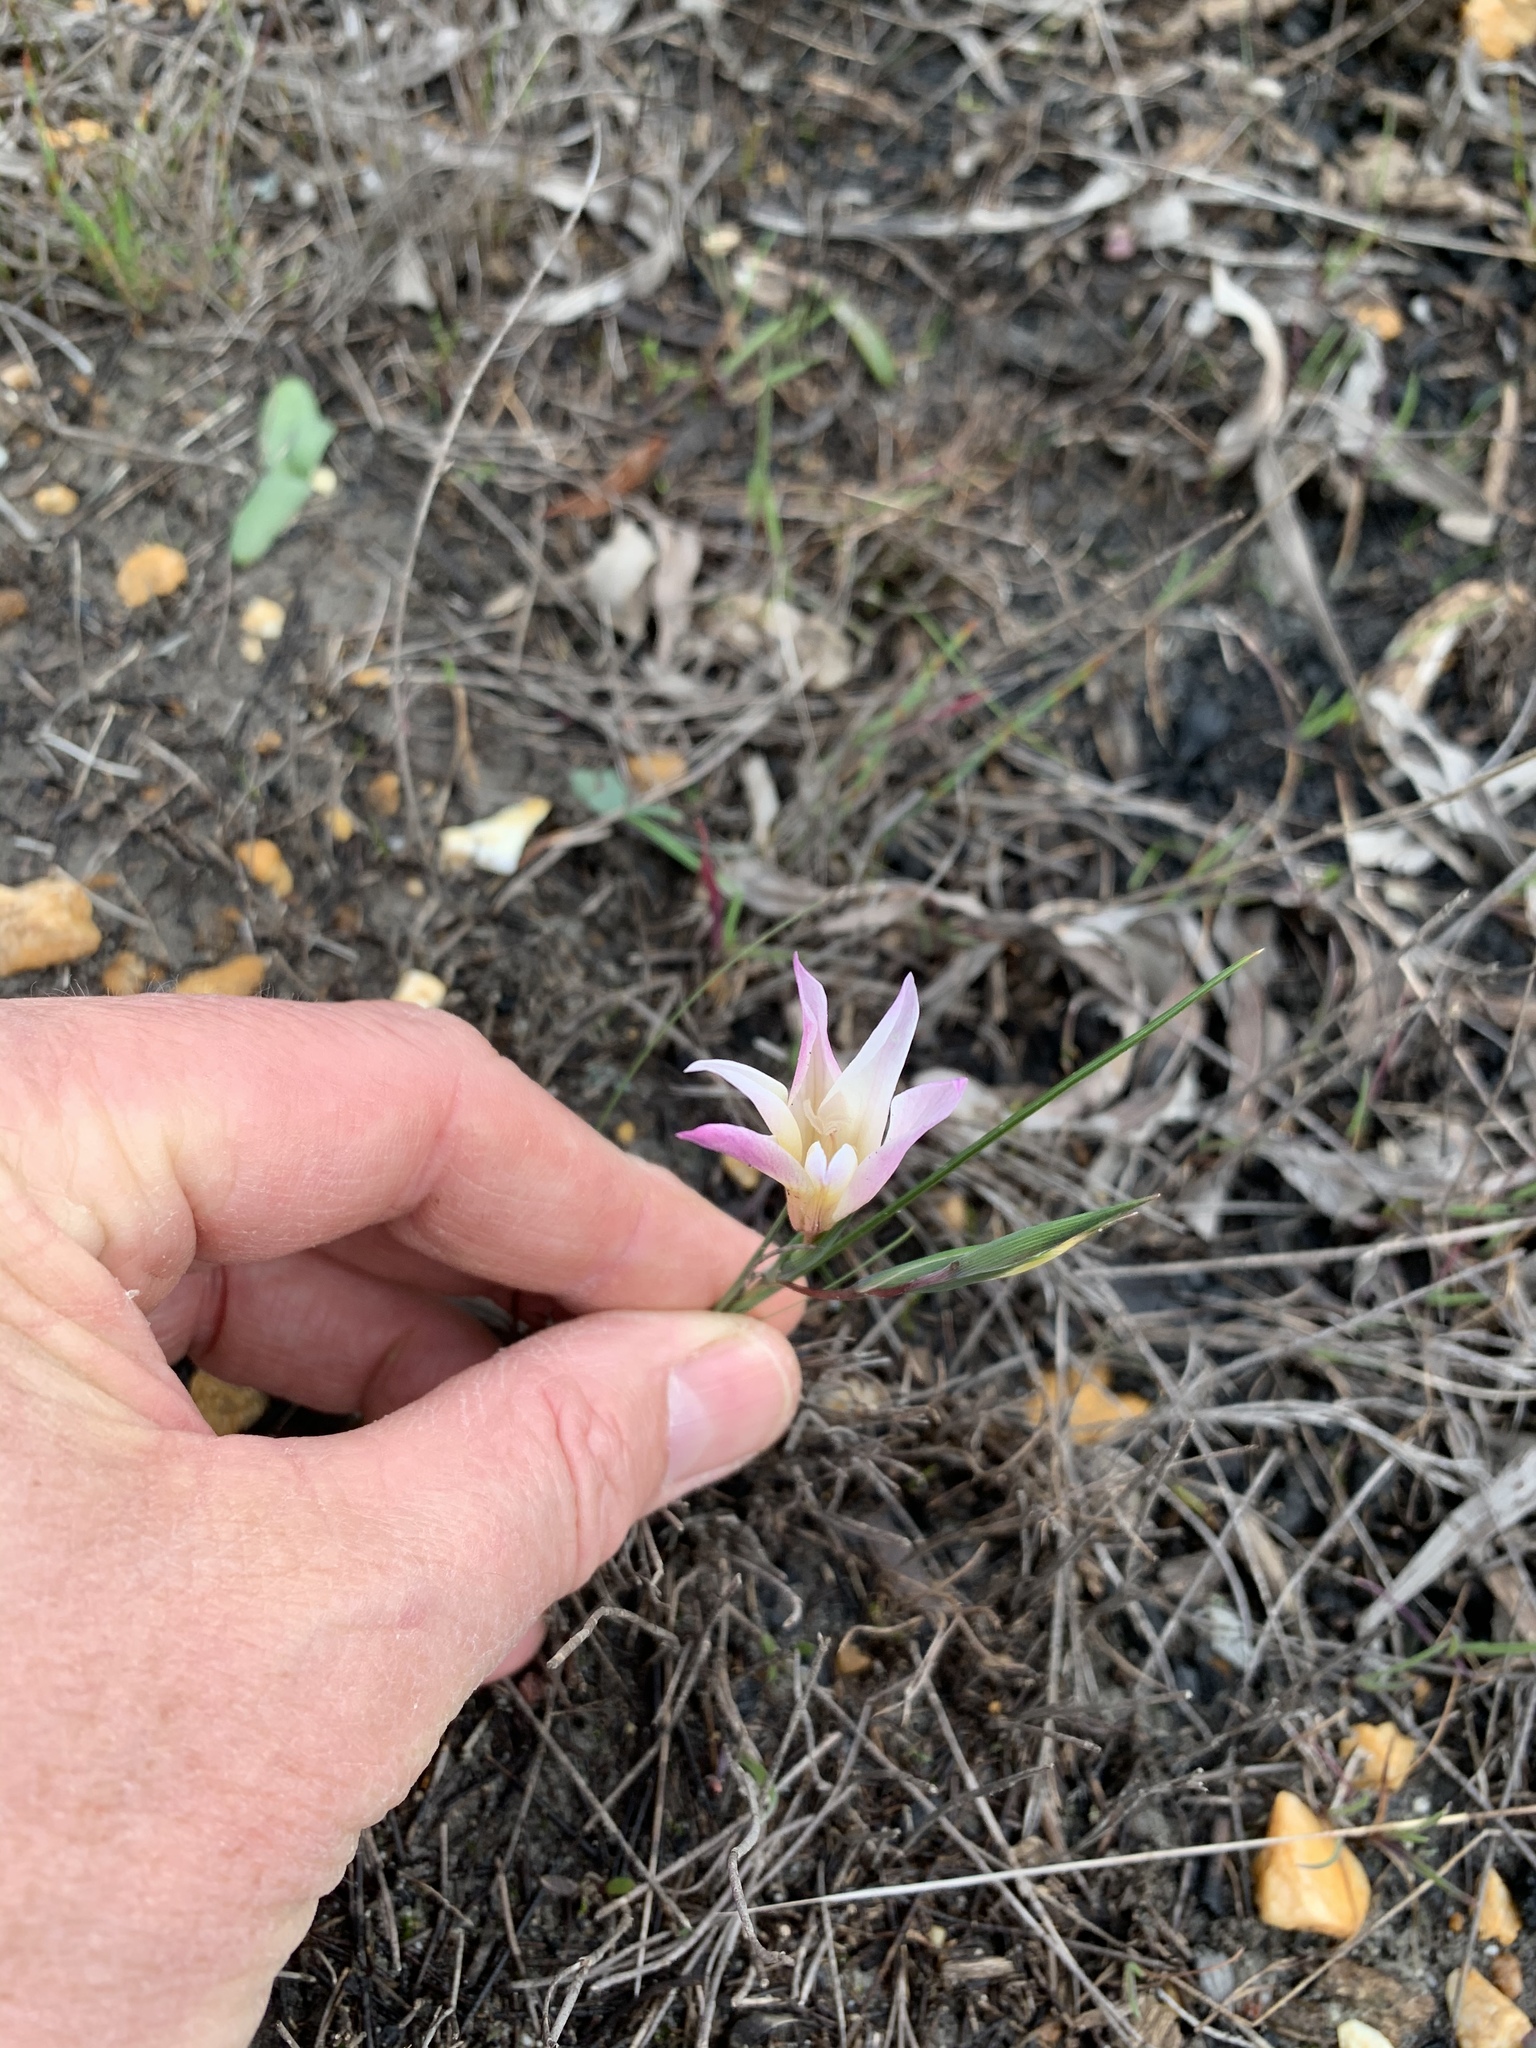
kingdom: Plantae
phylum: Tracheophyta
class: Liliopsida
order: Asparagales
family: Iridaceae
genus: Gladiolus
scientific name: Gladiolus trichonemifolius
